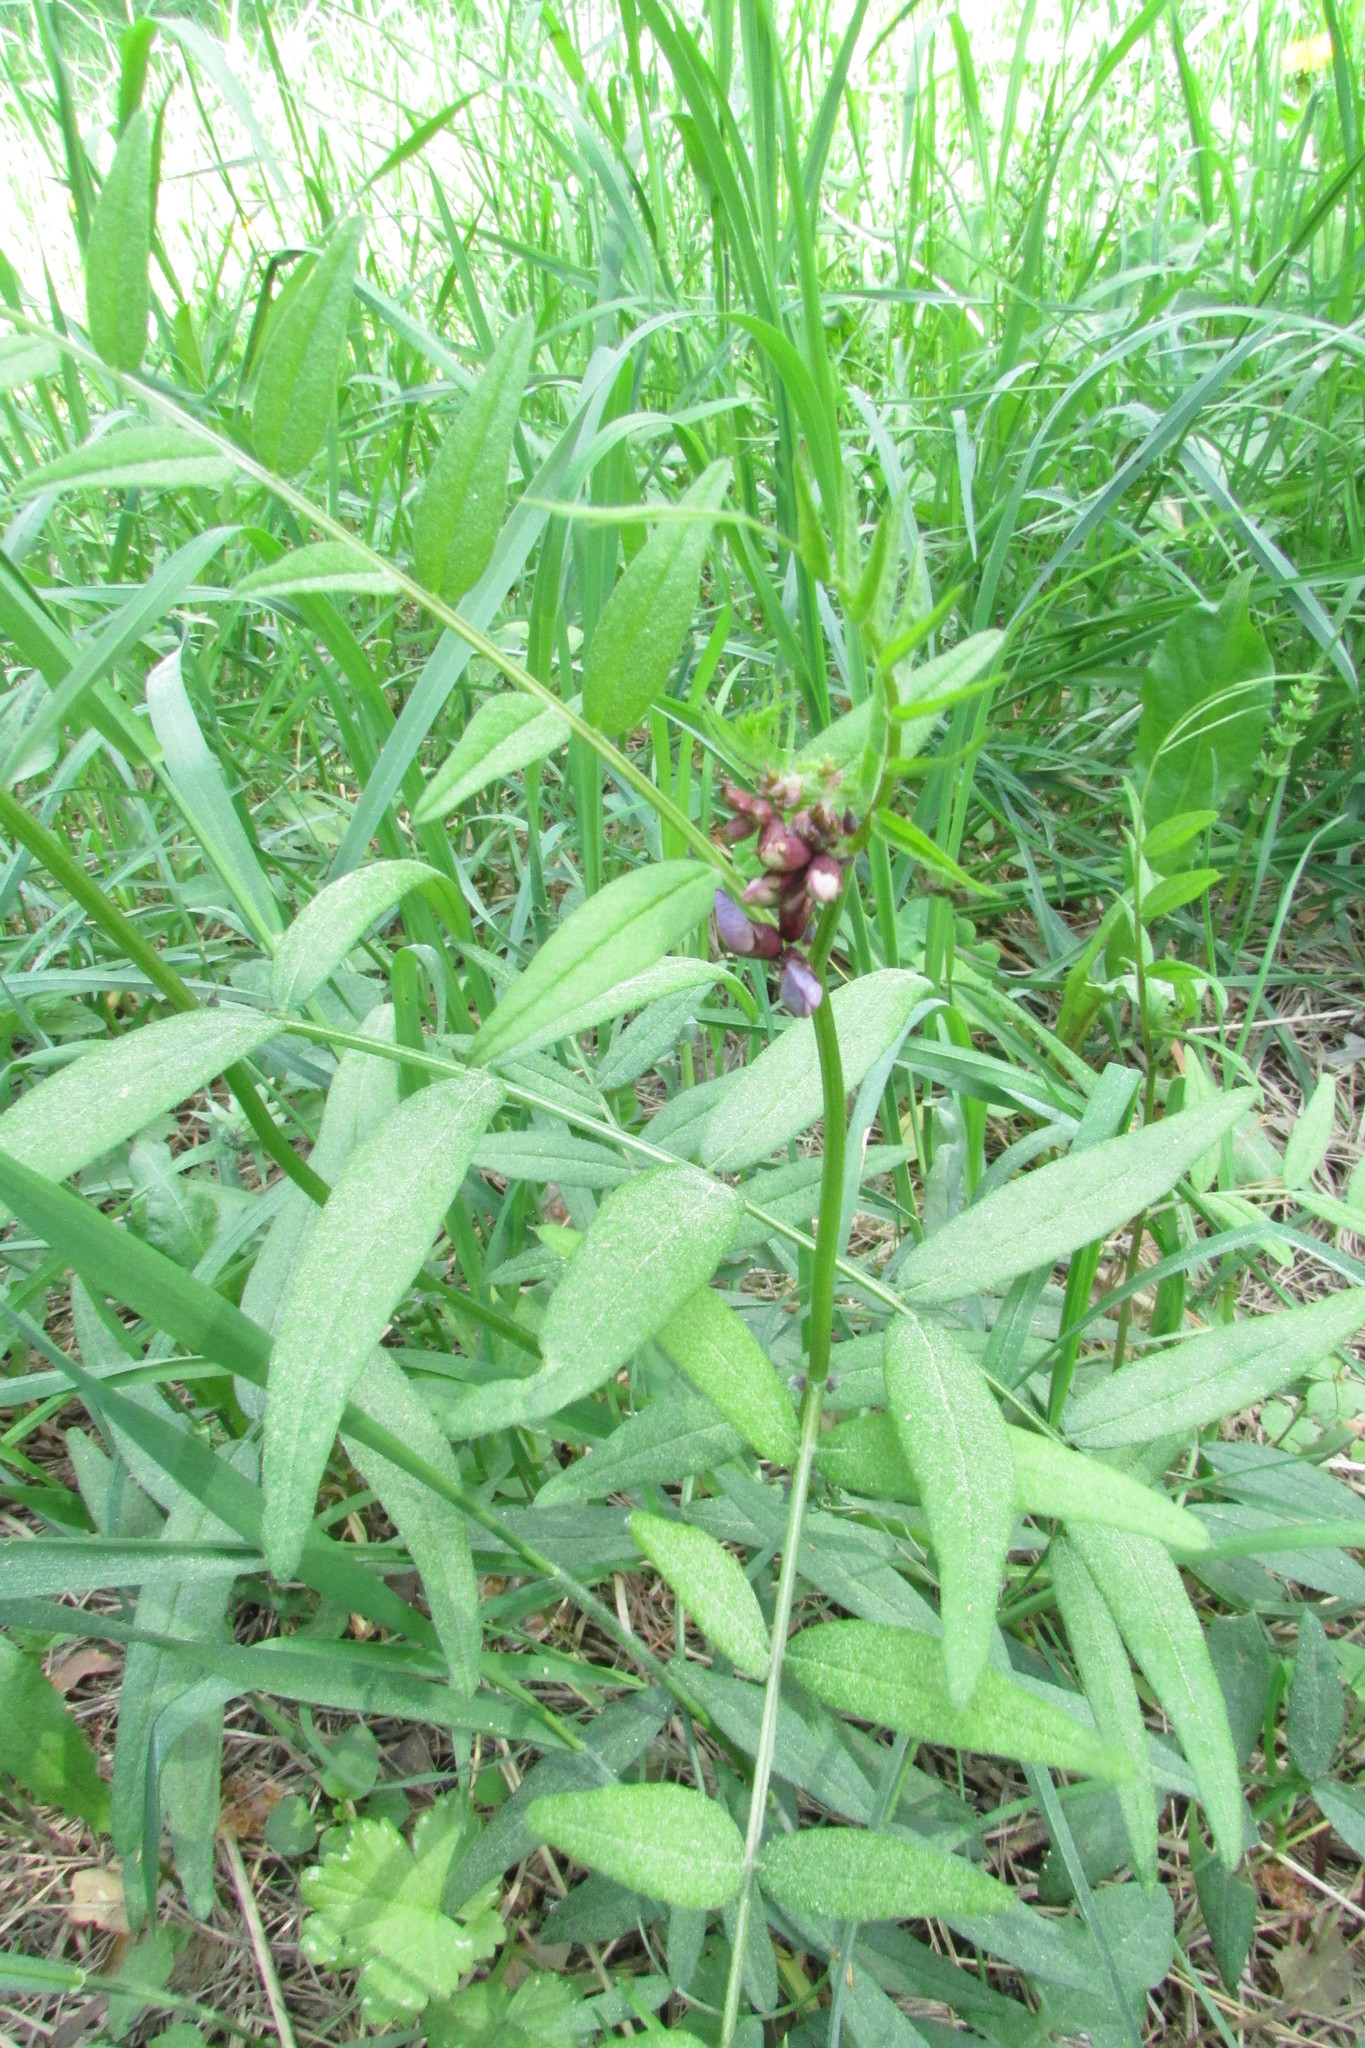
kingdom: Plantae
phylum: Tracheophyta
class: Magnoliopsida
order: Fabales
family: Fabaceae
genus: Vicia
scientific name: Vicia sepium
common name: Bush vetch
